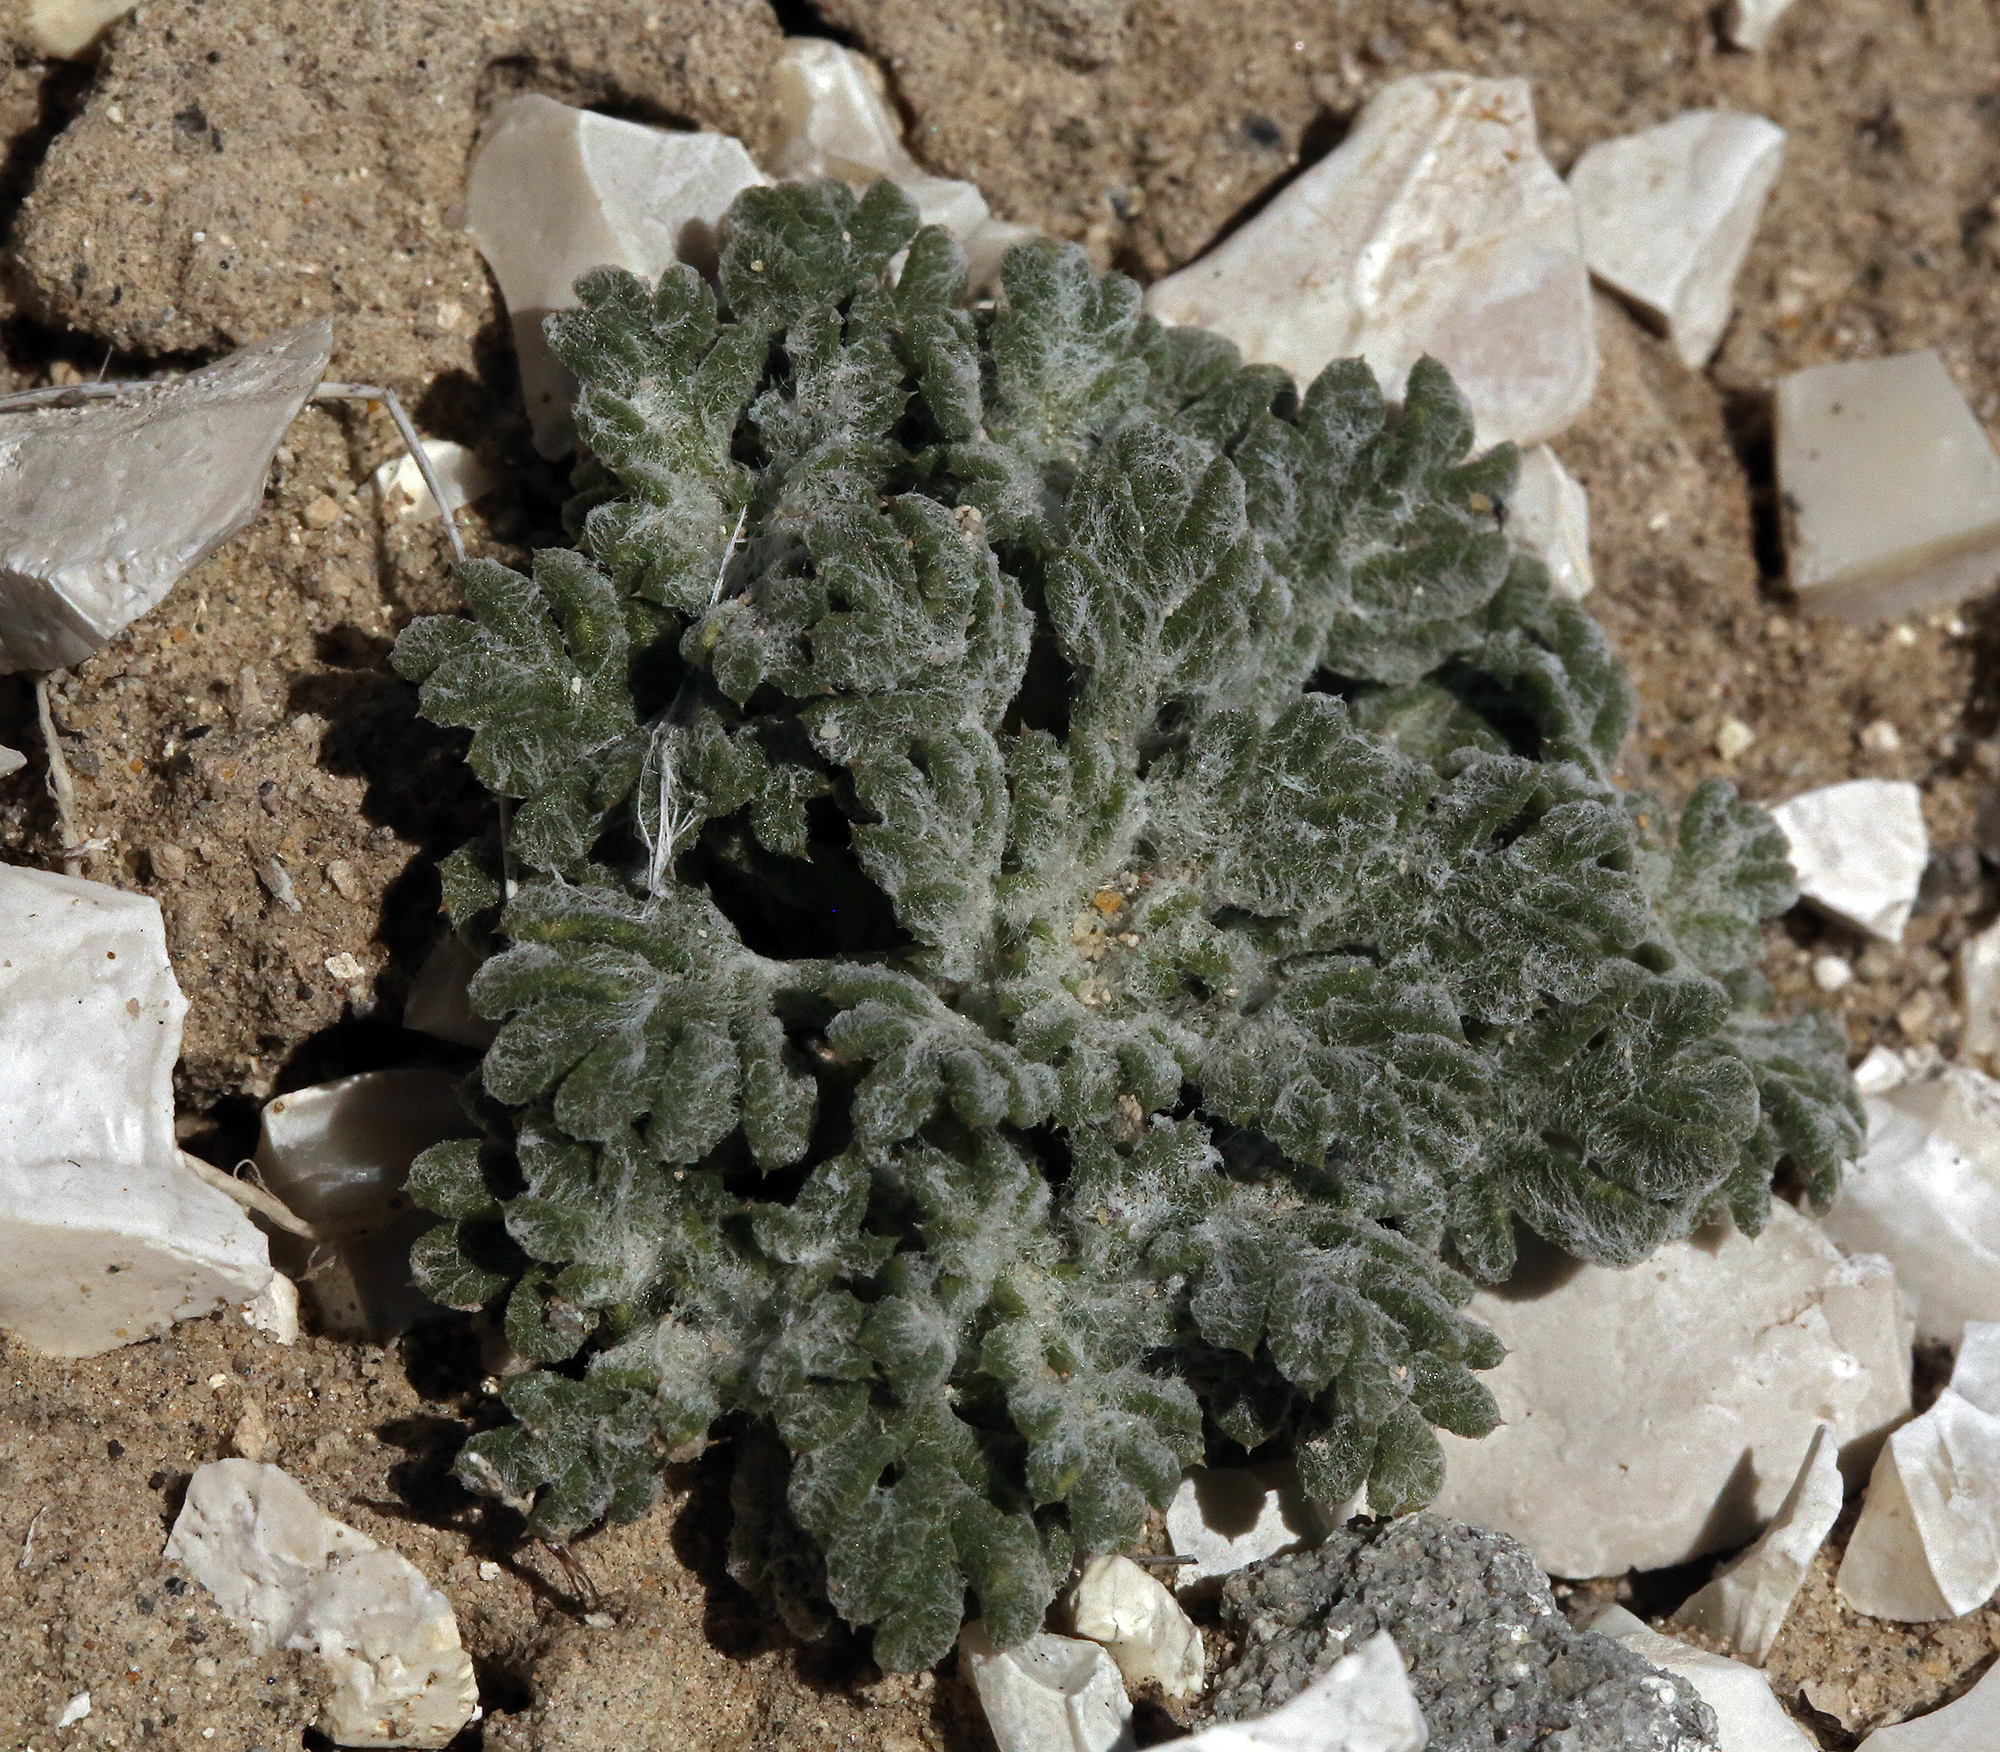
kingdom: Plantae
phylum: Tracheophyta
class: Magnoliopsida
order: Ericales
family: Polemoniaceae
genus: Ipomopsis
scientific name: Ipomopsis congesta
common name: Ball-head gilia
